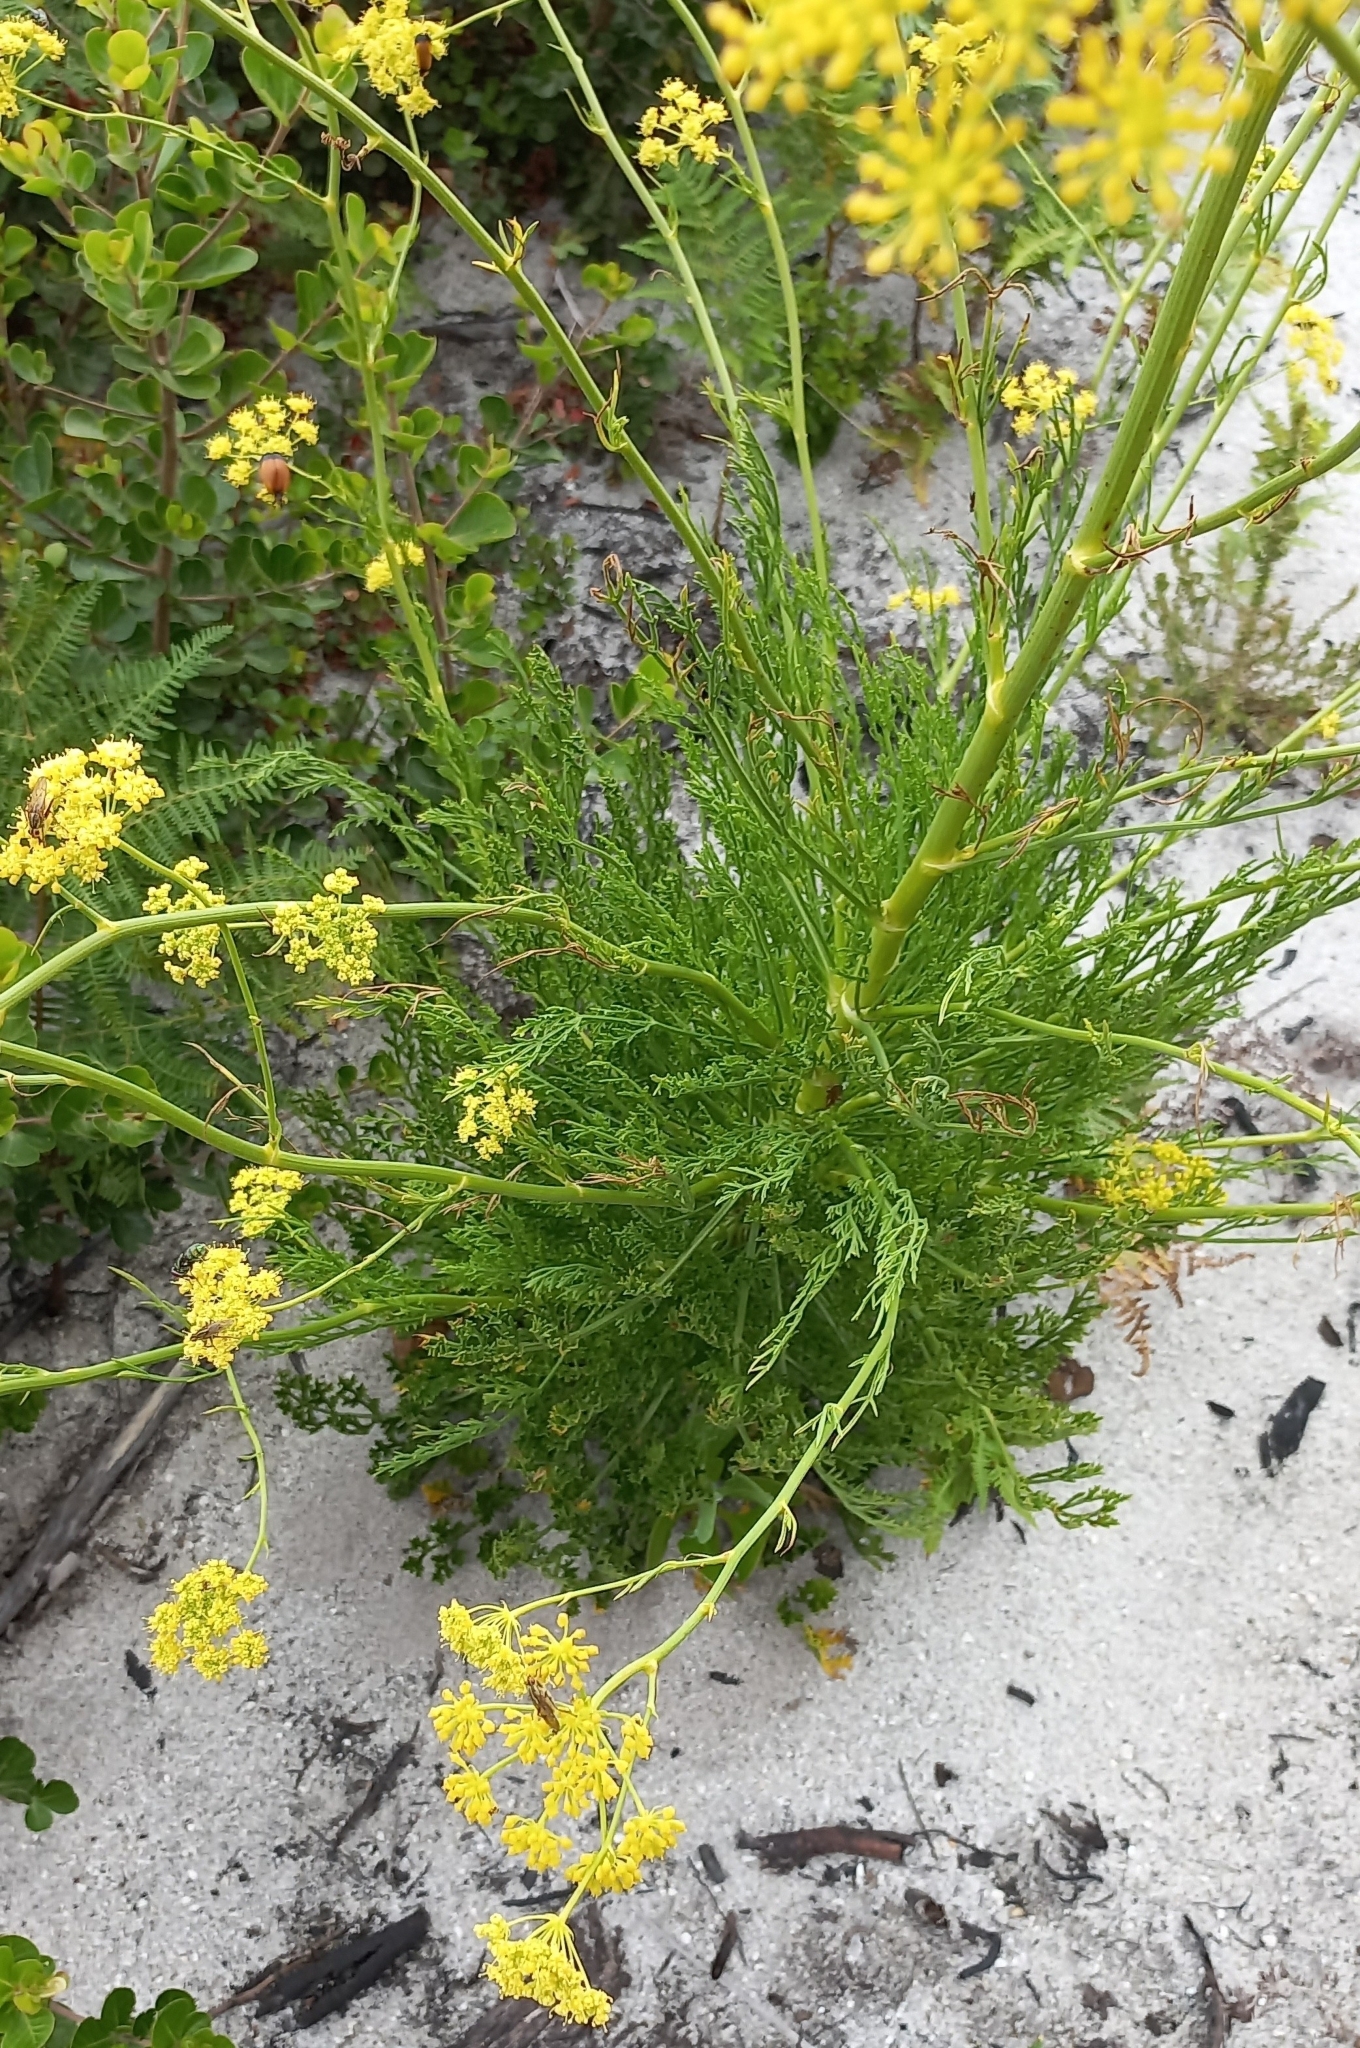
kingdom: Plantae
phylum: Tracheophyta
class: Magnoliopsida
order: Apiales
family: Apiaceae
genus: Glia
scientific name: Glia prolifera
